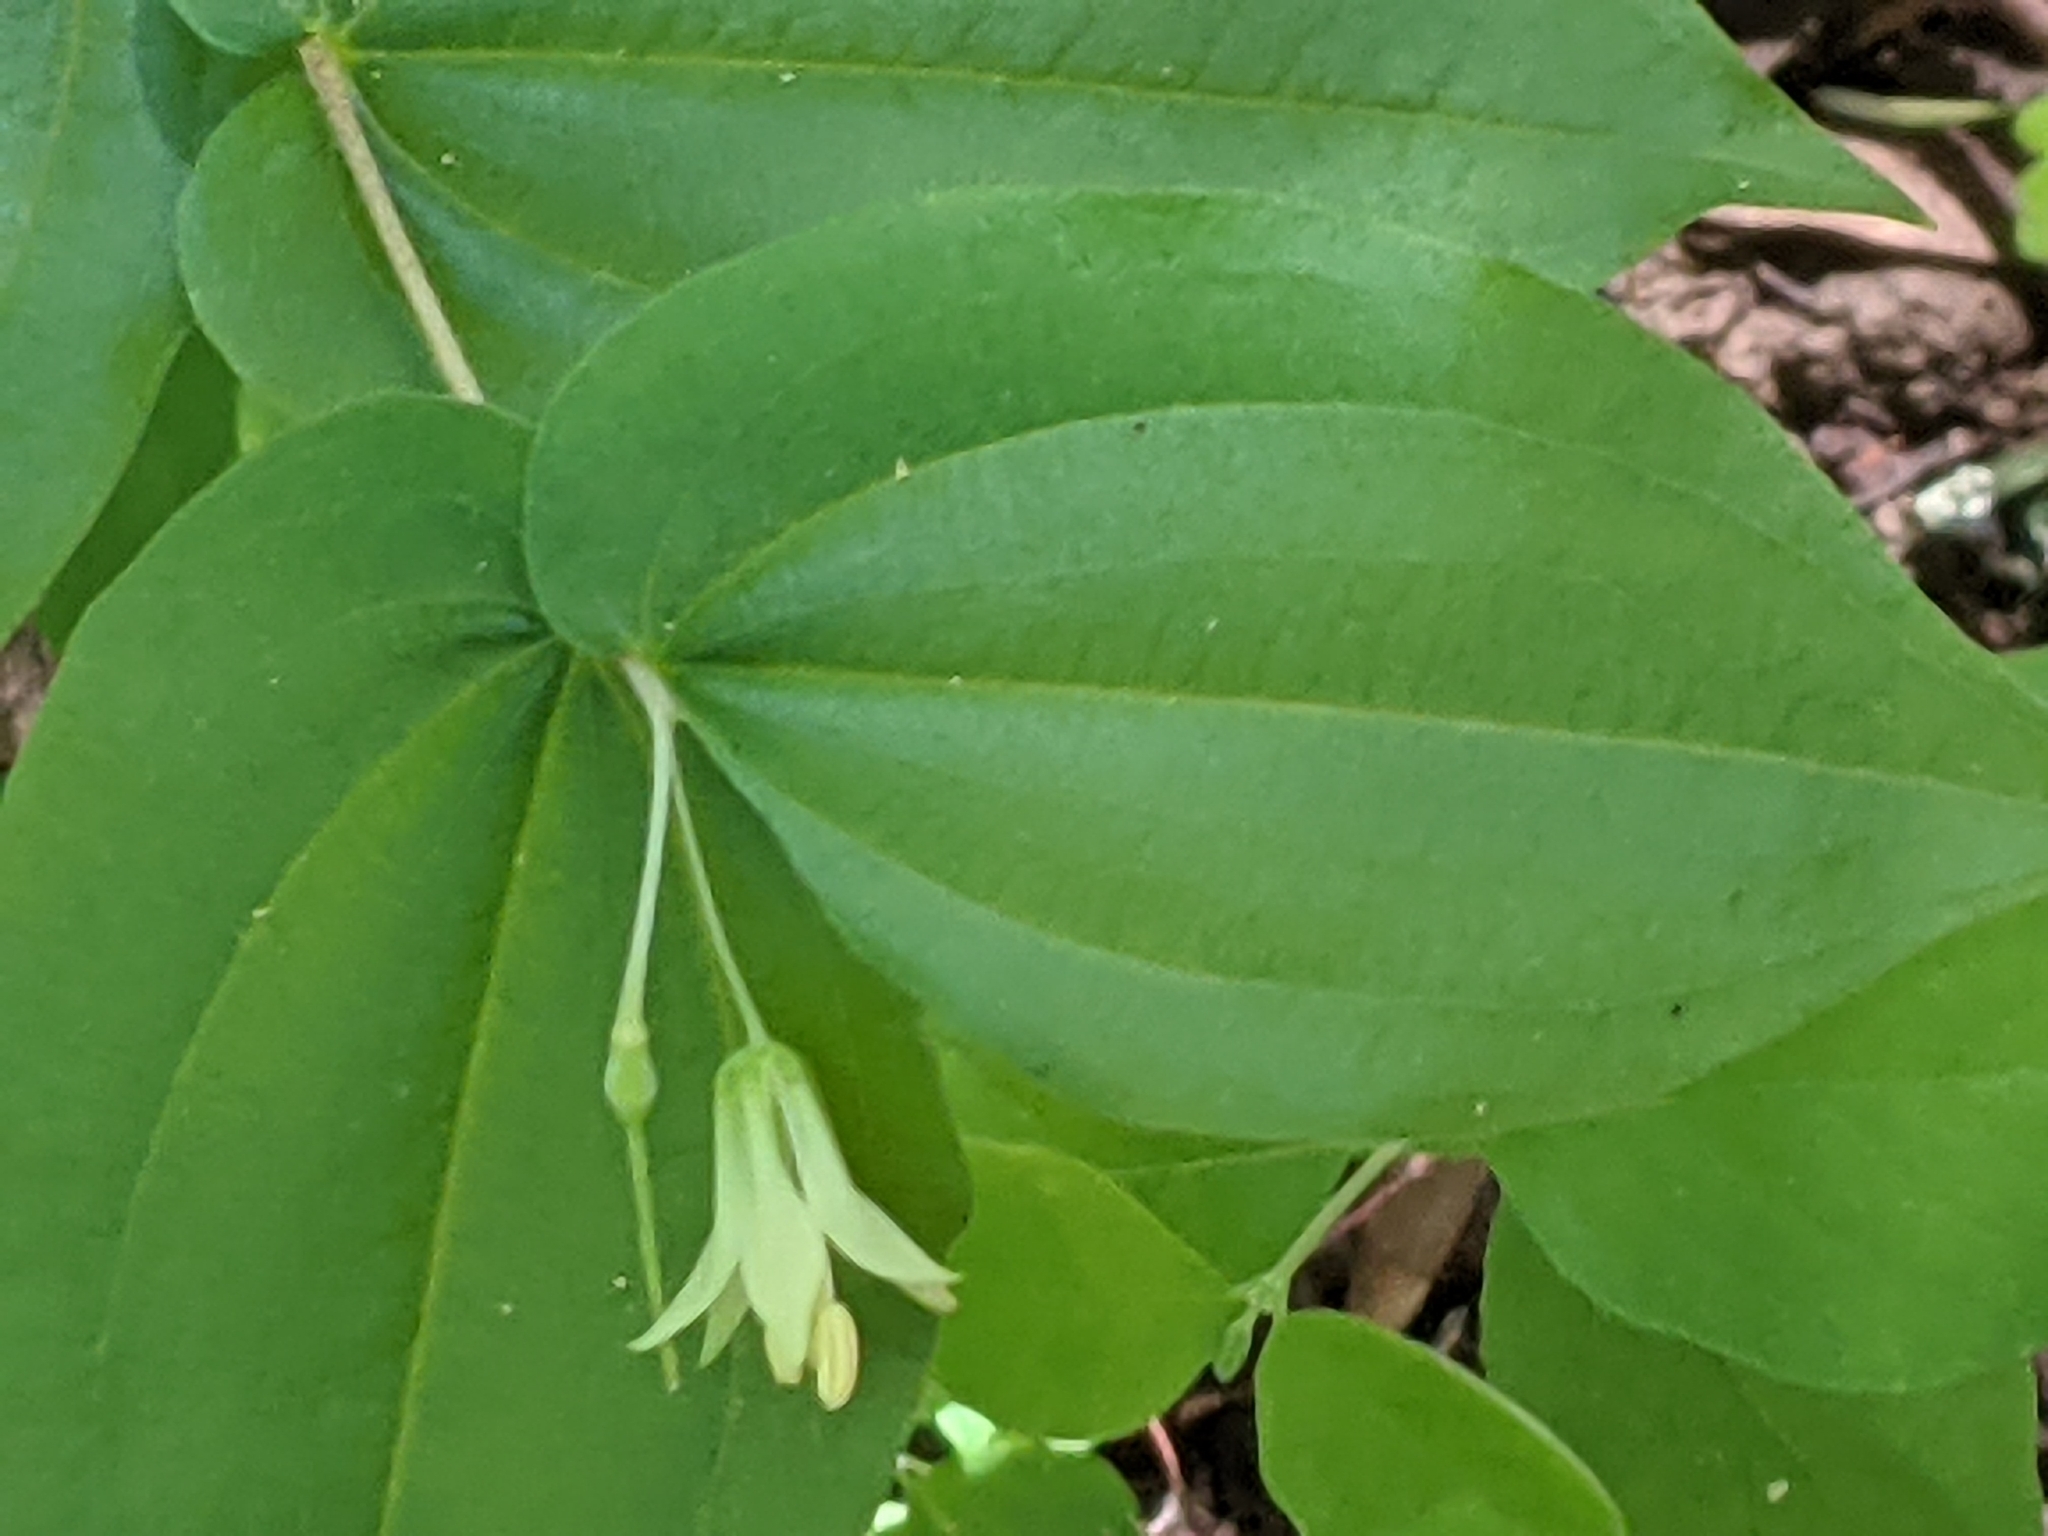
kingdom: Plantae
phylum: Tracheophyta
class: Liliopsida
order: Liliales
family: Liliaceae
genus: Prosartes
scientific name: Prosartes hookeri
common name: Fairy-bells
